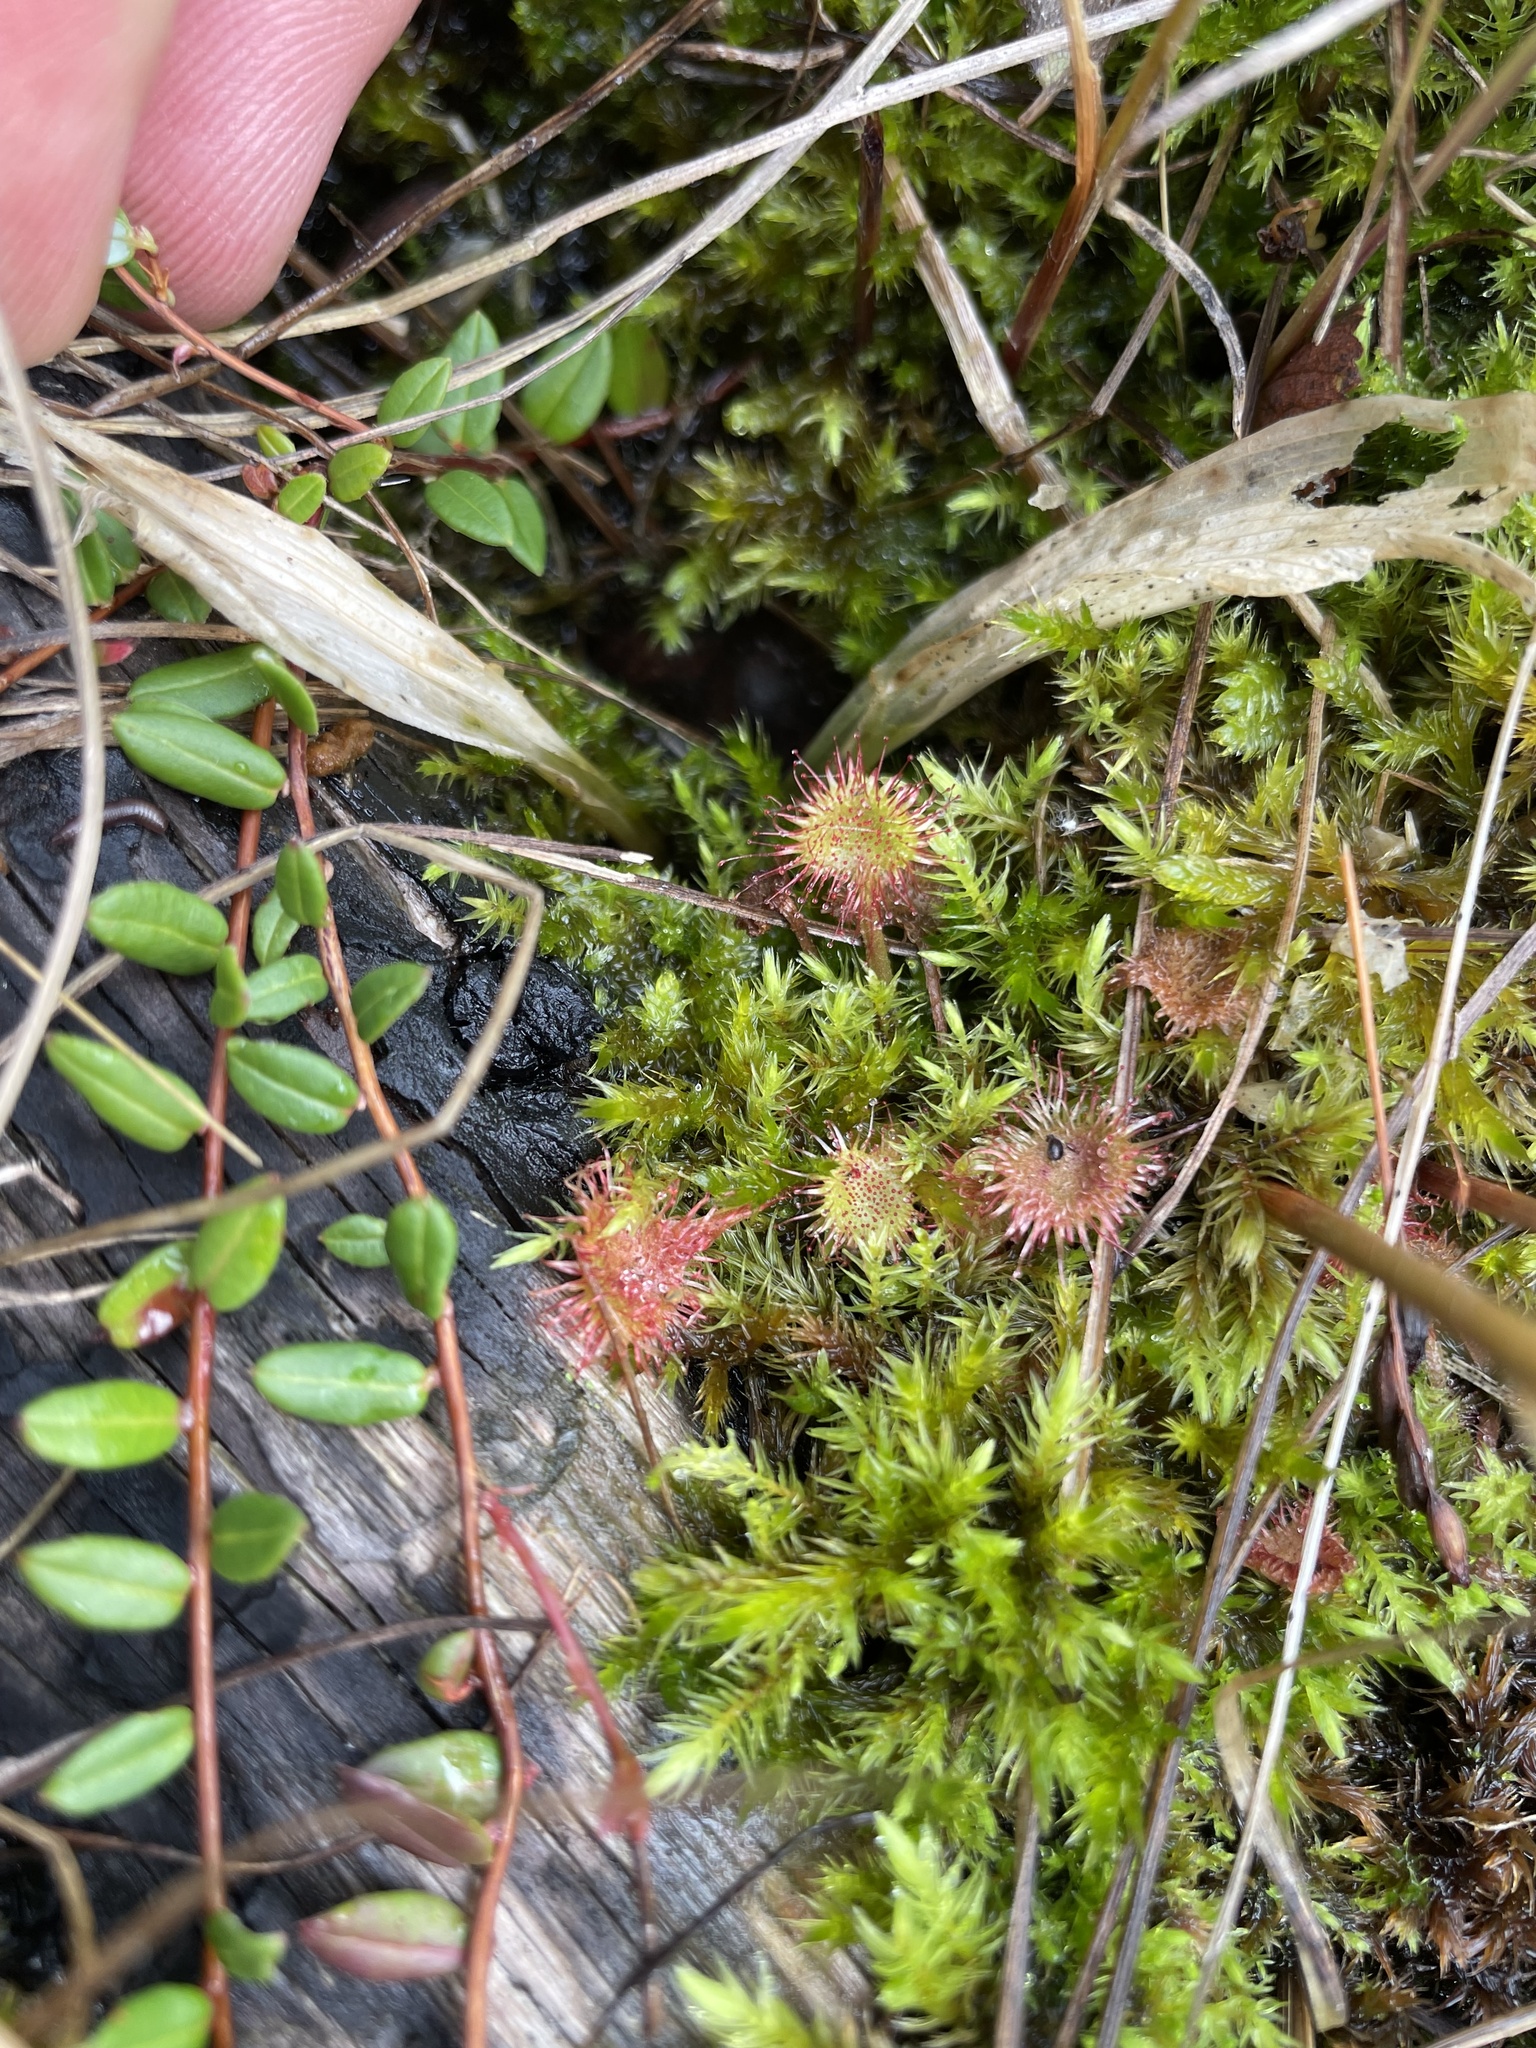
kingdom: Plantae
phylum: Tracheophyta
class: Magnoliopsida
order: Caryophyllales
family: Droseraceae
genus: Drosera
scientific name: Drosera rotundifolia
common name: Round-leaved sundew
